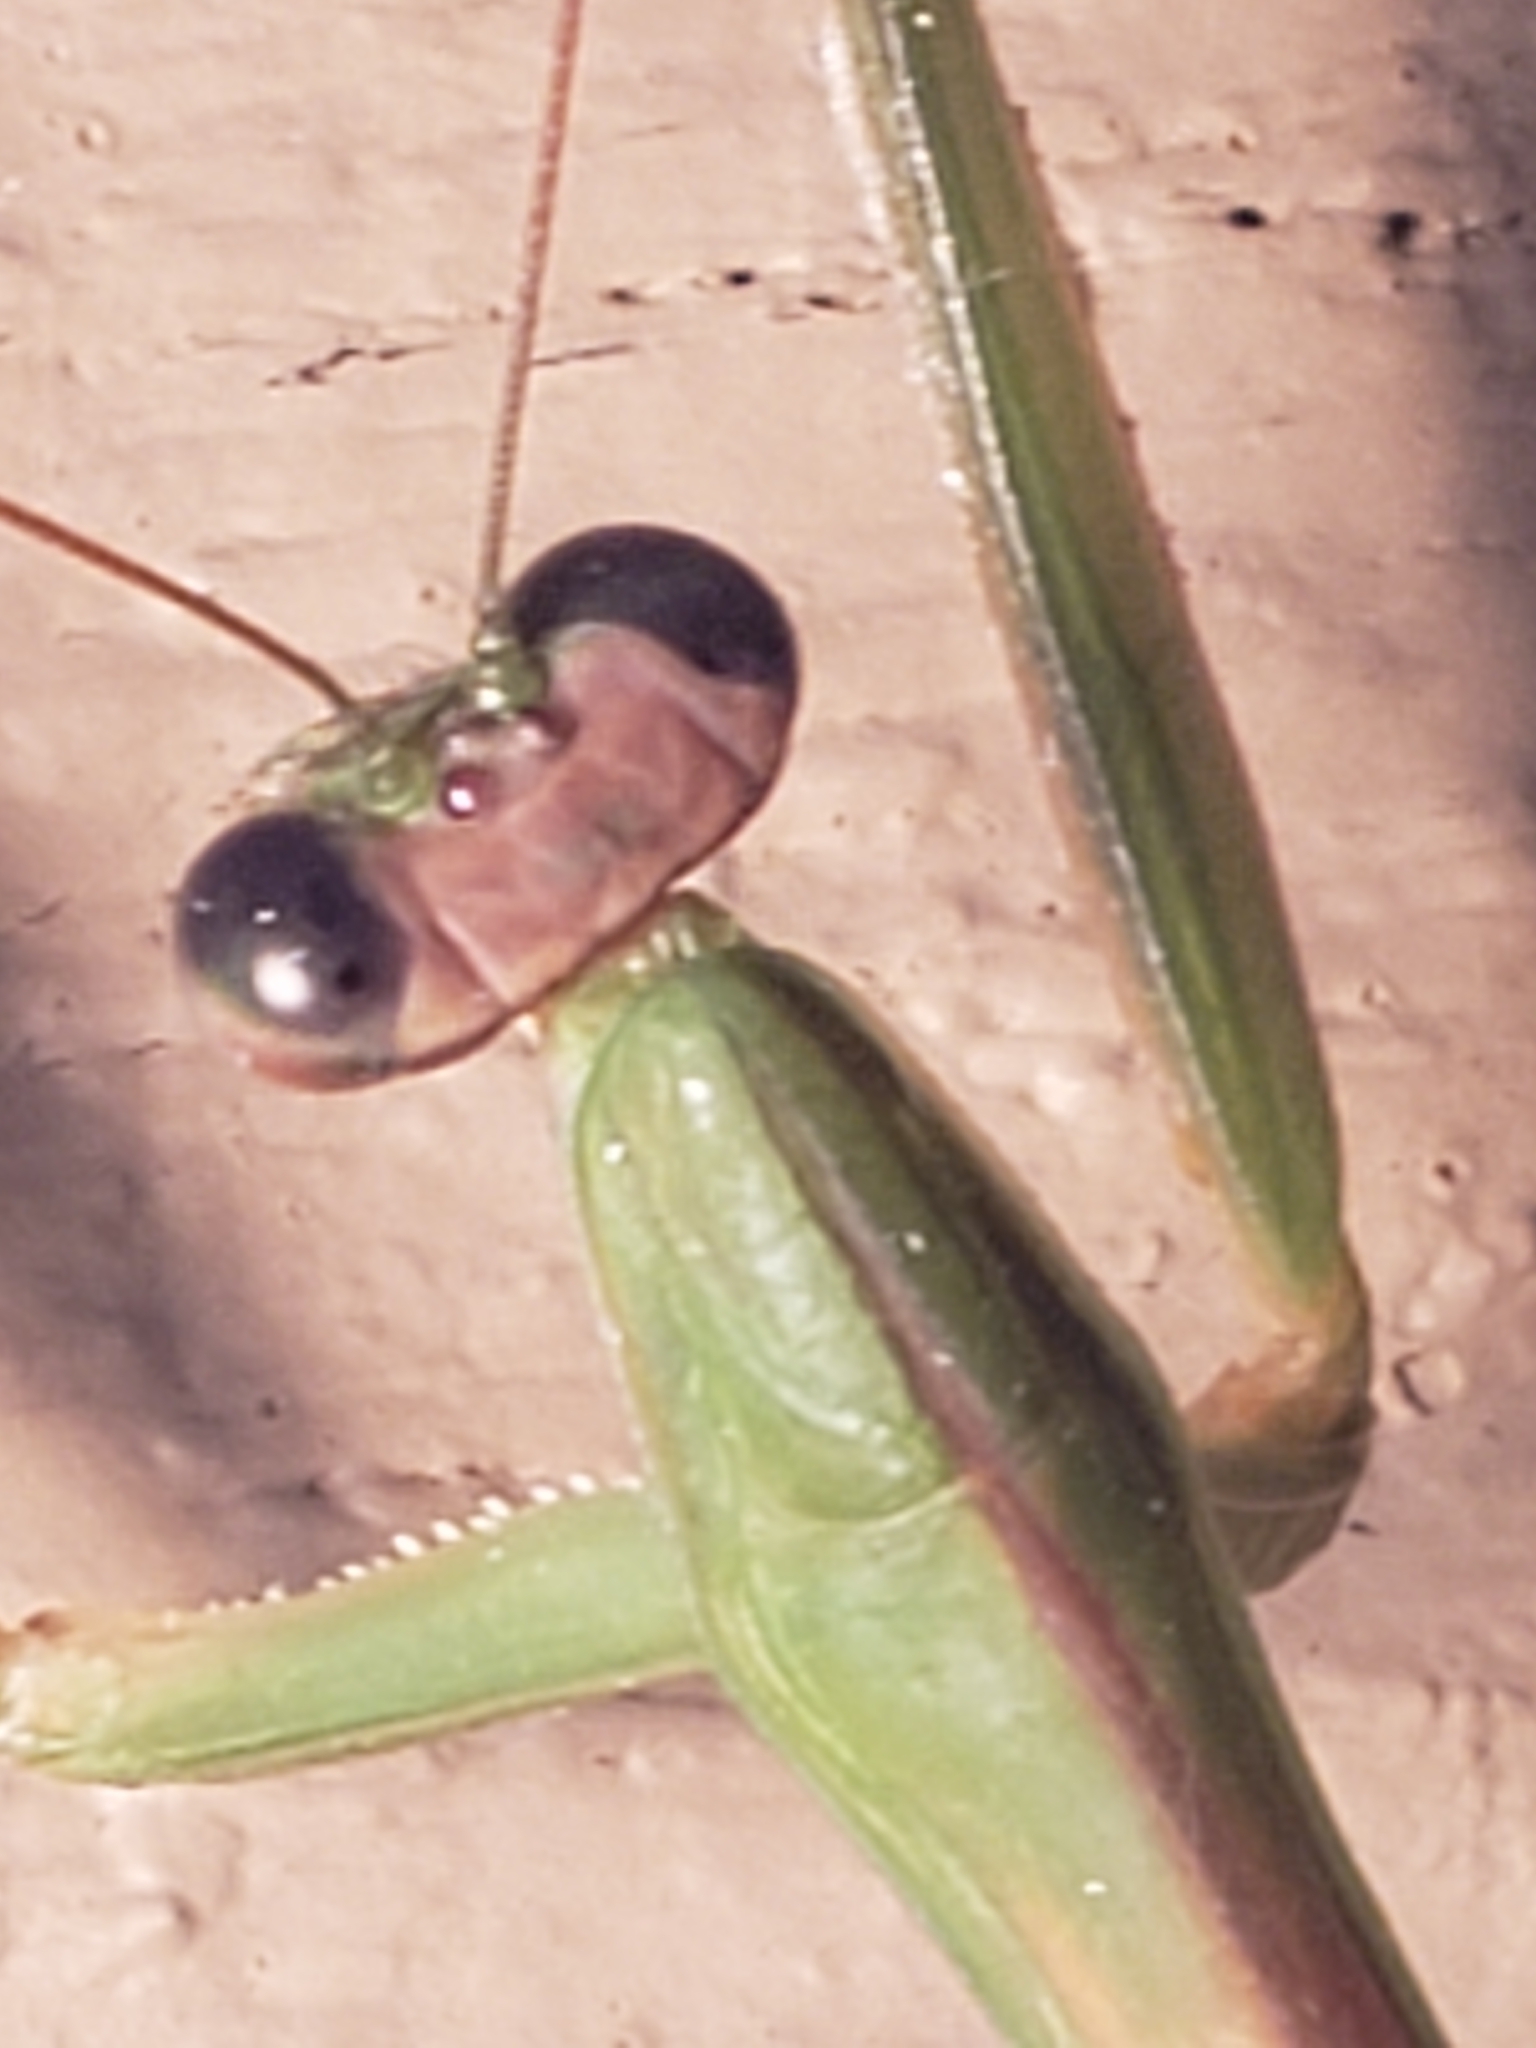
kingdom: Animalia
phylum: Arthropoda
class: Insecta
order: Mantodea
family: Mantidae
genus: Tenodera
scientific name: Tenodera sinensis
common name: Chinese mantis
